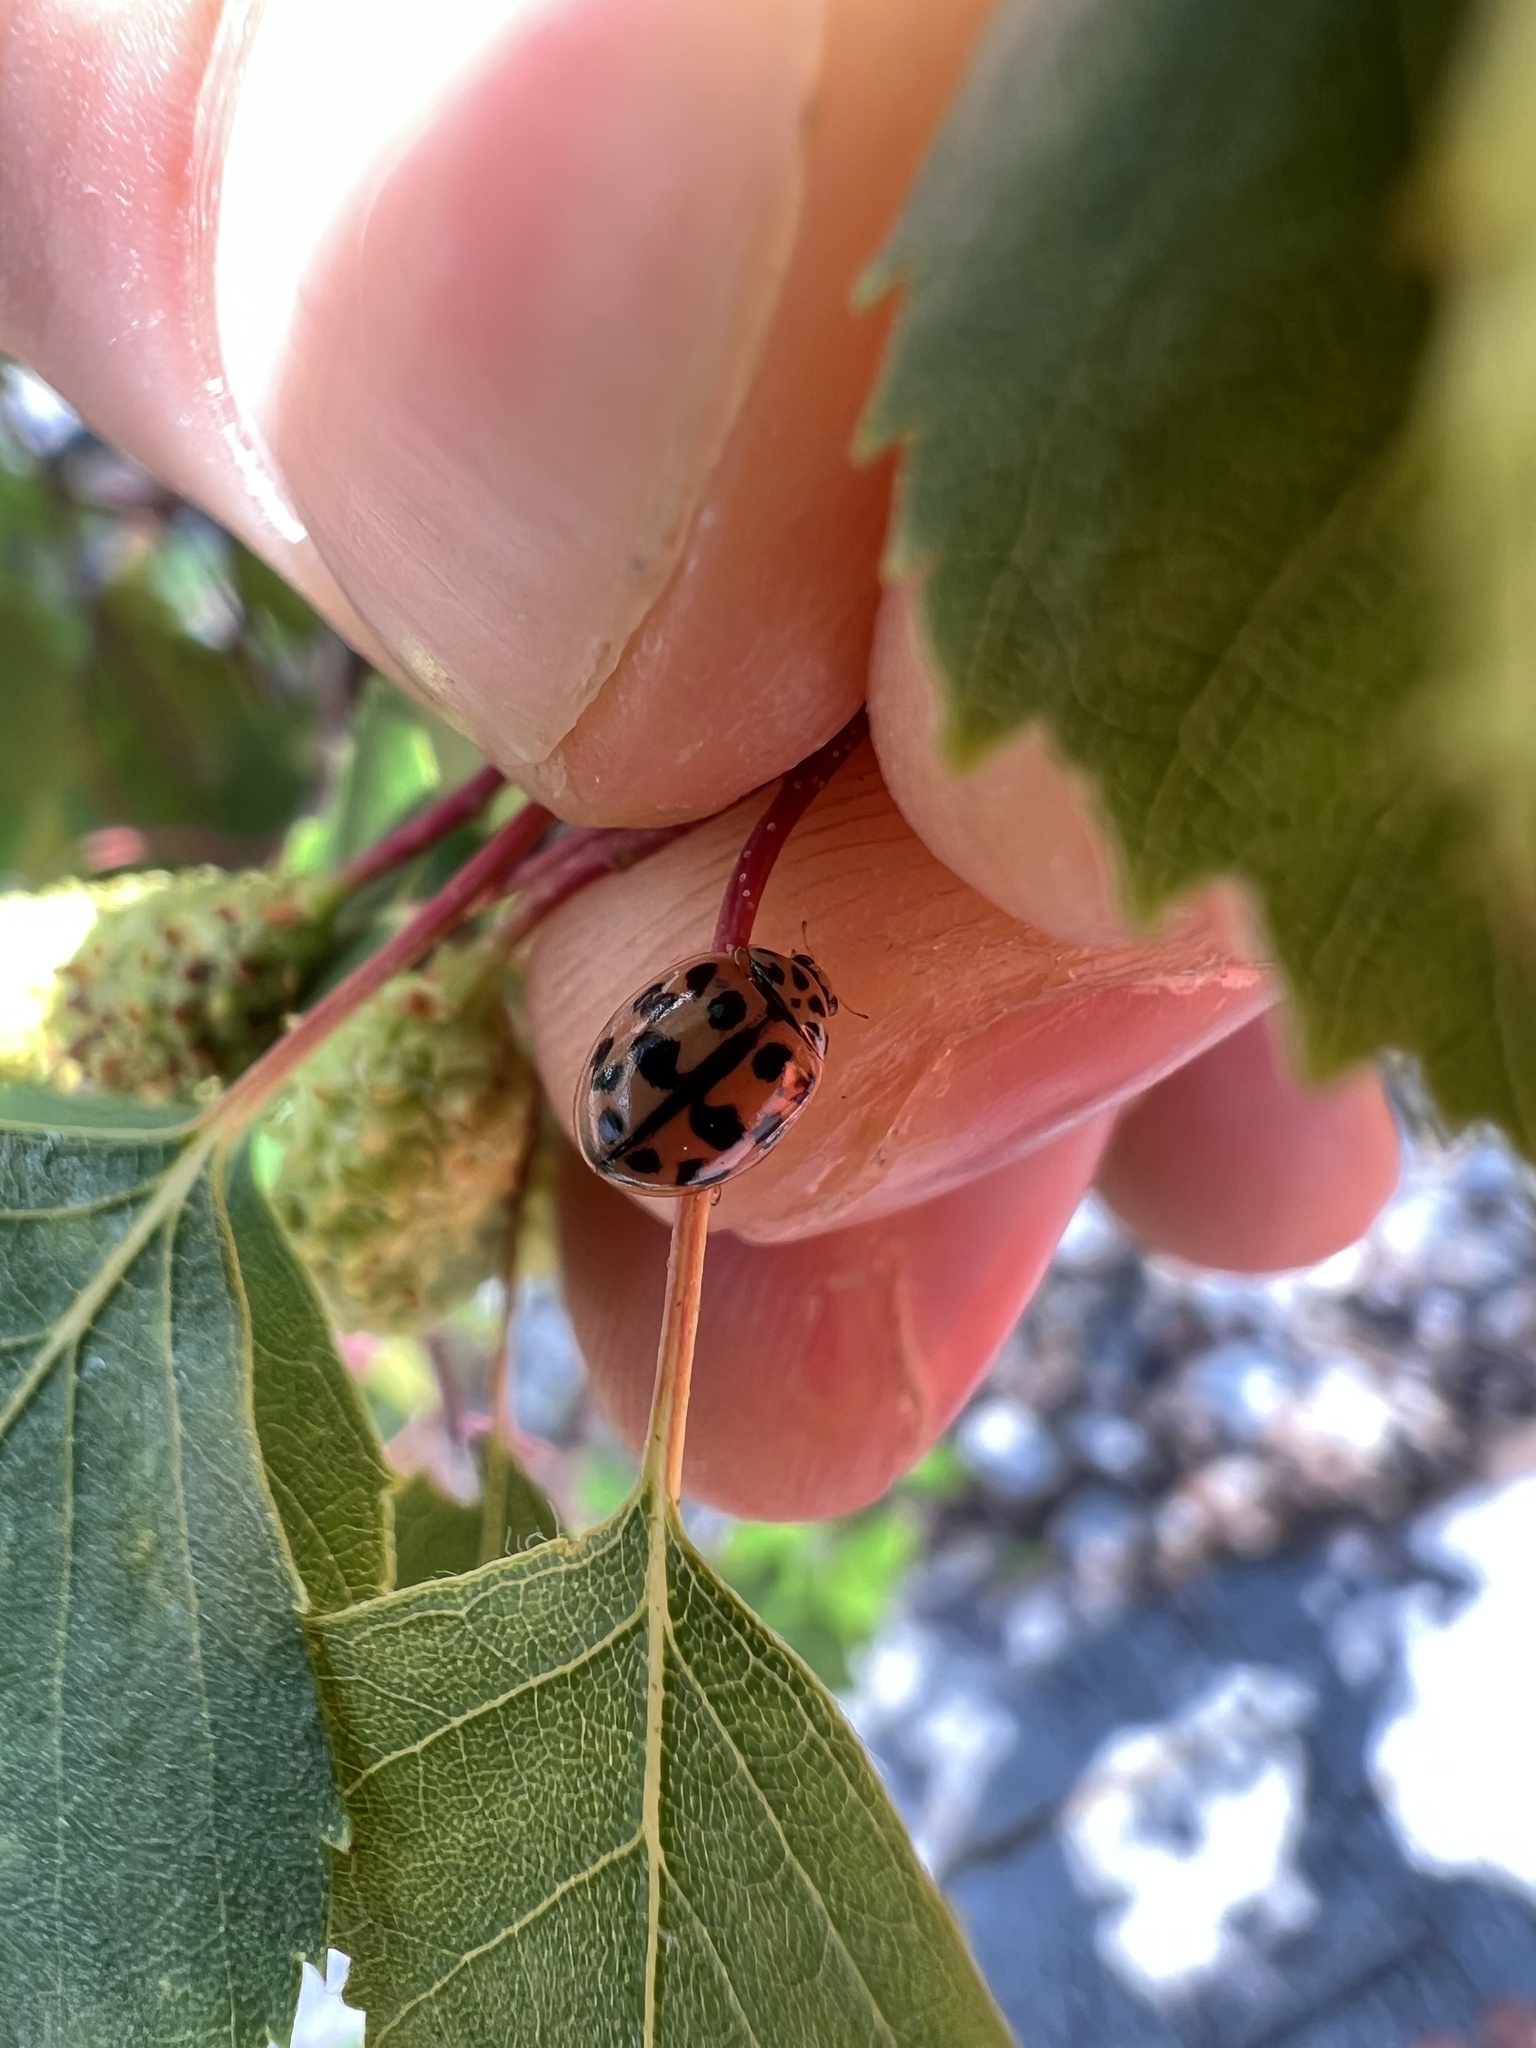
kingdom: Animalia
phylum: Arthropoda
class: Insecta
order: Coleoptera
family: Coccinellidae
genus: Oenopia
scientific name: Oenopia conglobata
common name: Ladybird beetle
